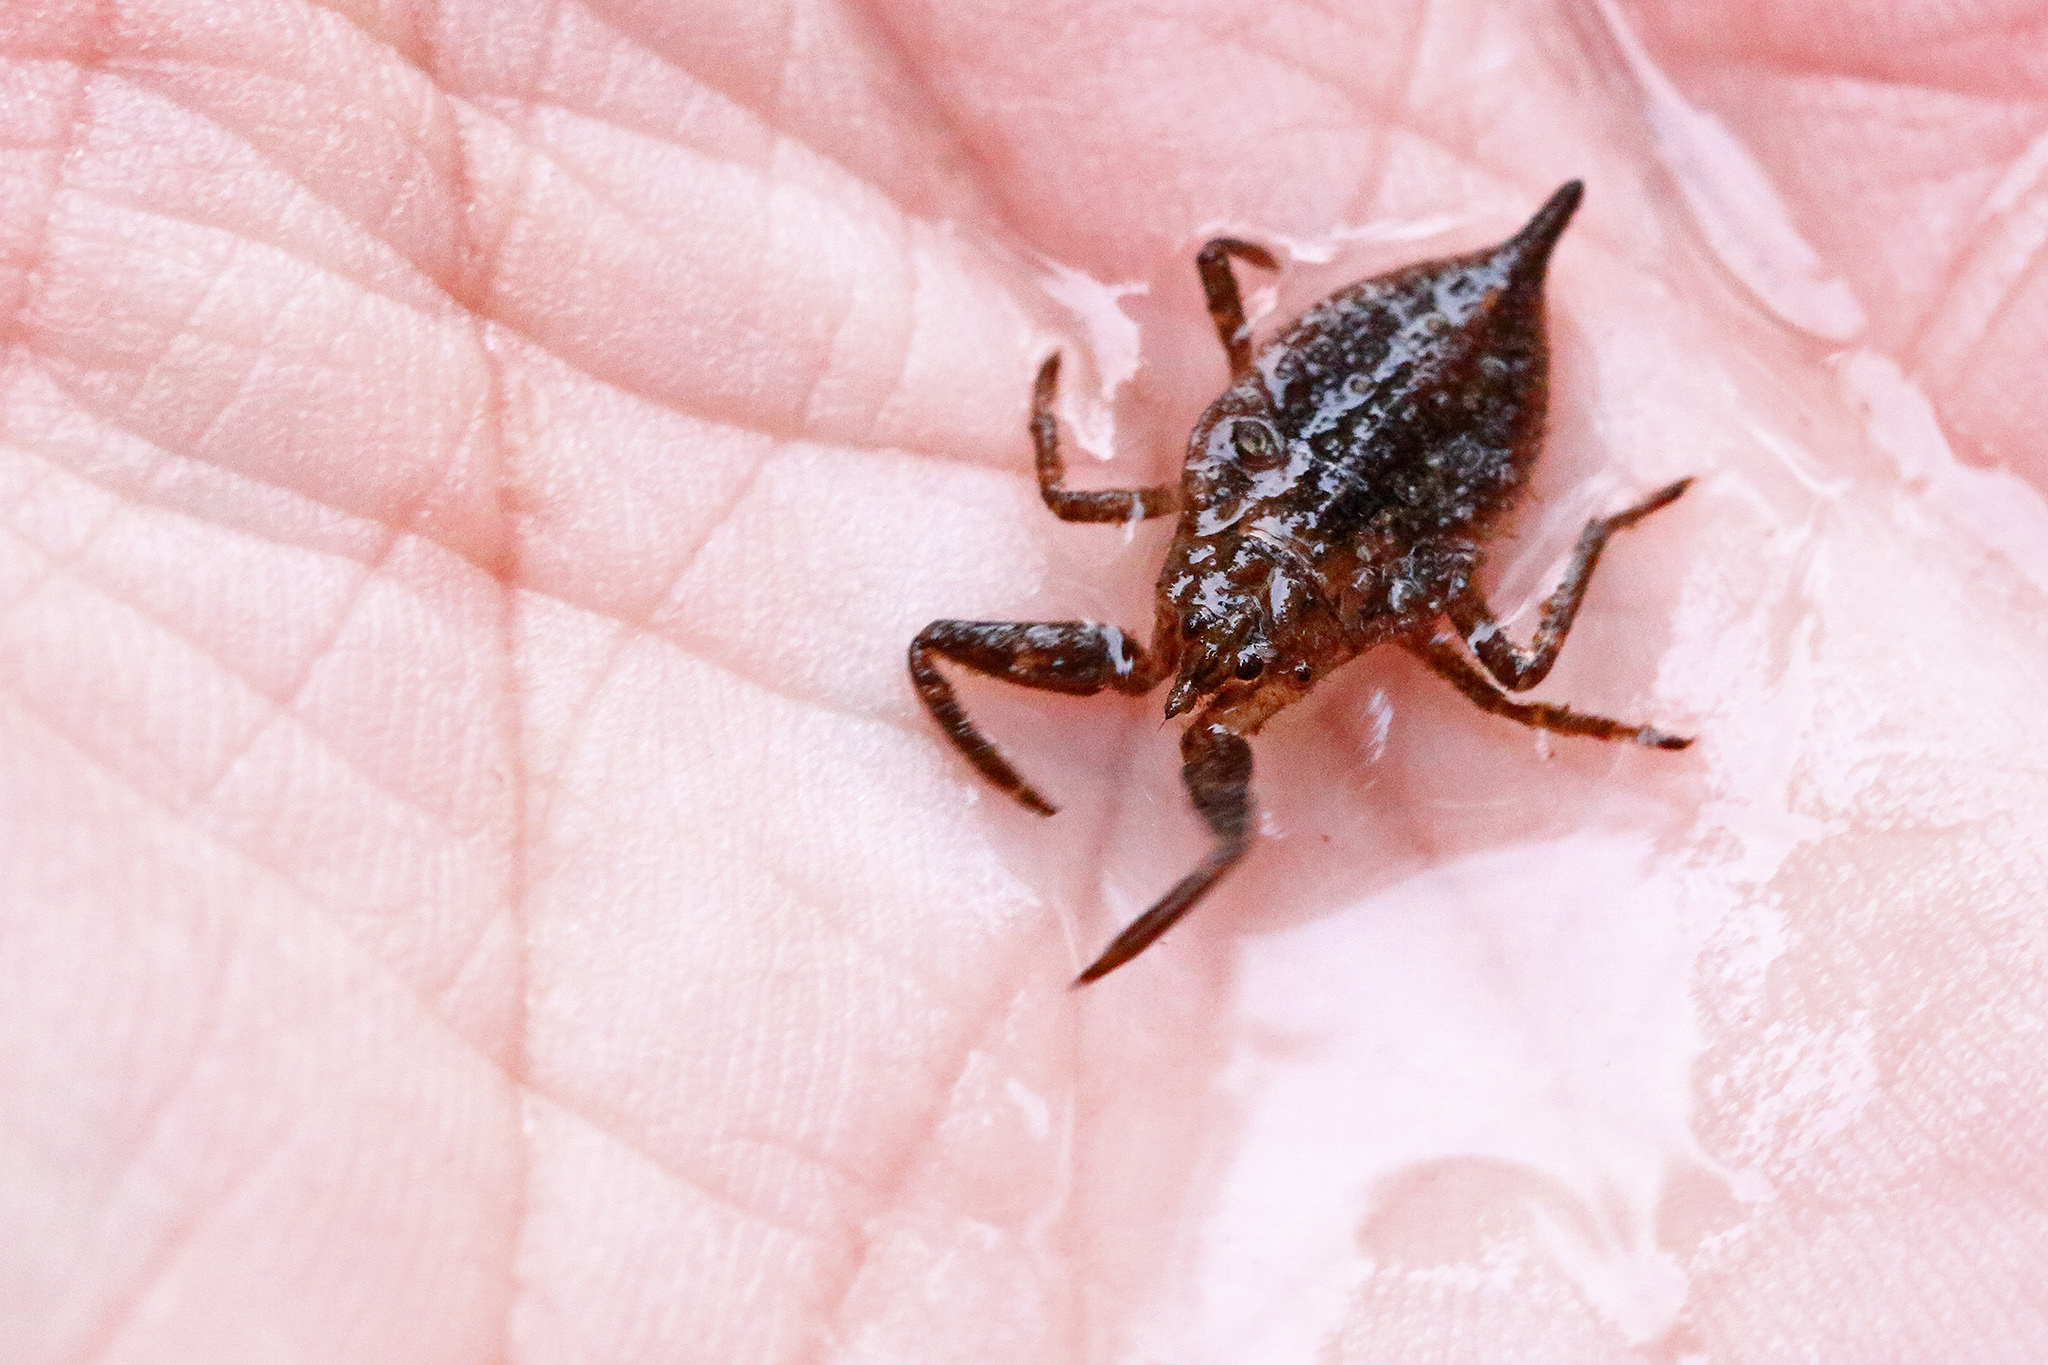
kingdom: Animalia
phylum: Arthropoda
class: Insecta
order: Hemiptera
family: Nepidae
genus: Nepa
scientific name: Nepa cinerea
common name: Water scorpion
